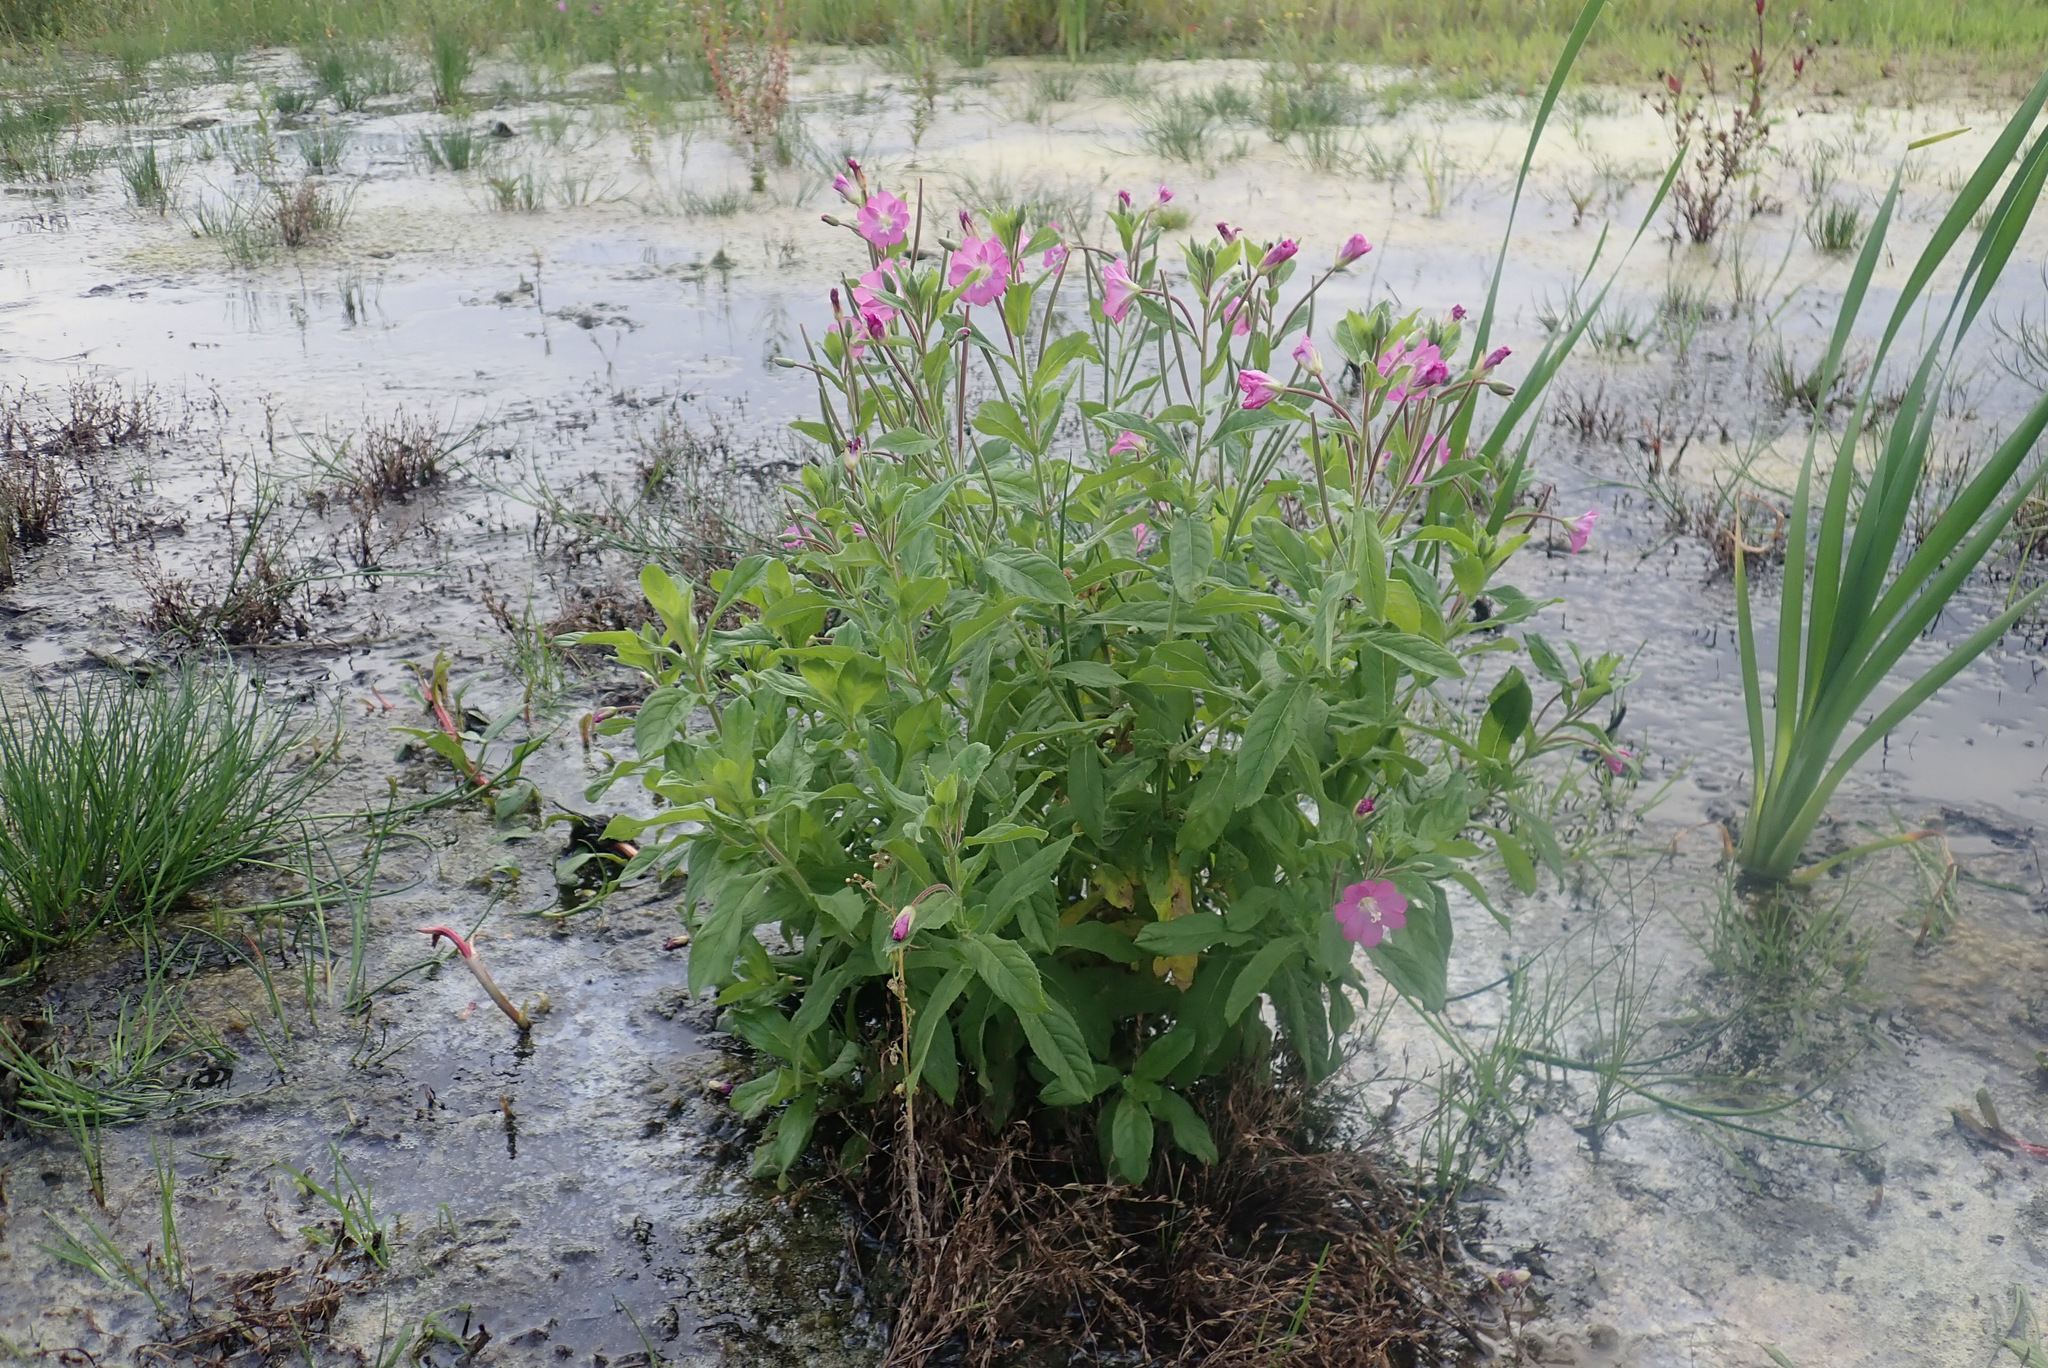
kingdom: Plantae
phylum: Tracheophyta
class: Magnoliopsida
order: Myrtales
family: Onagraceae
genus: Epilobium
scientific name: Epilobium hirsutum
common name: Great willowherb
